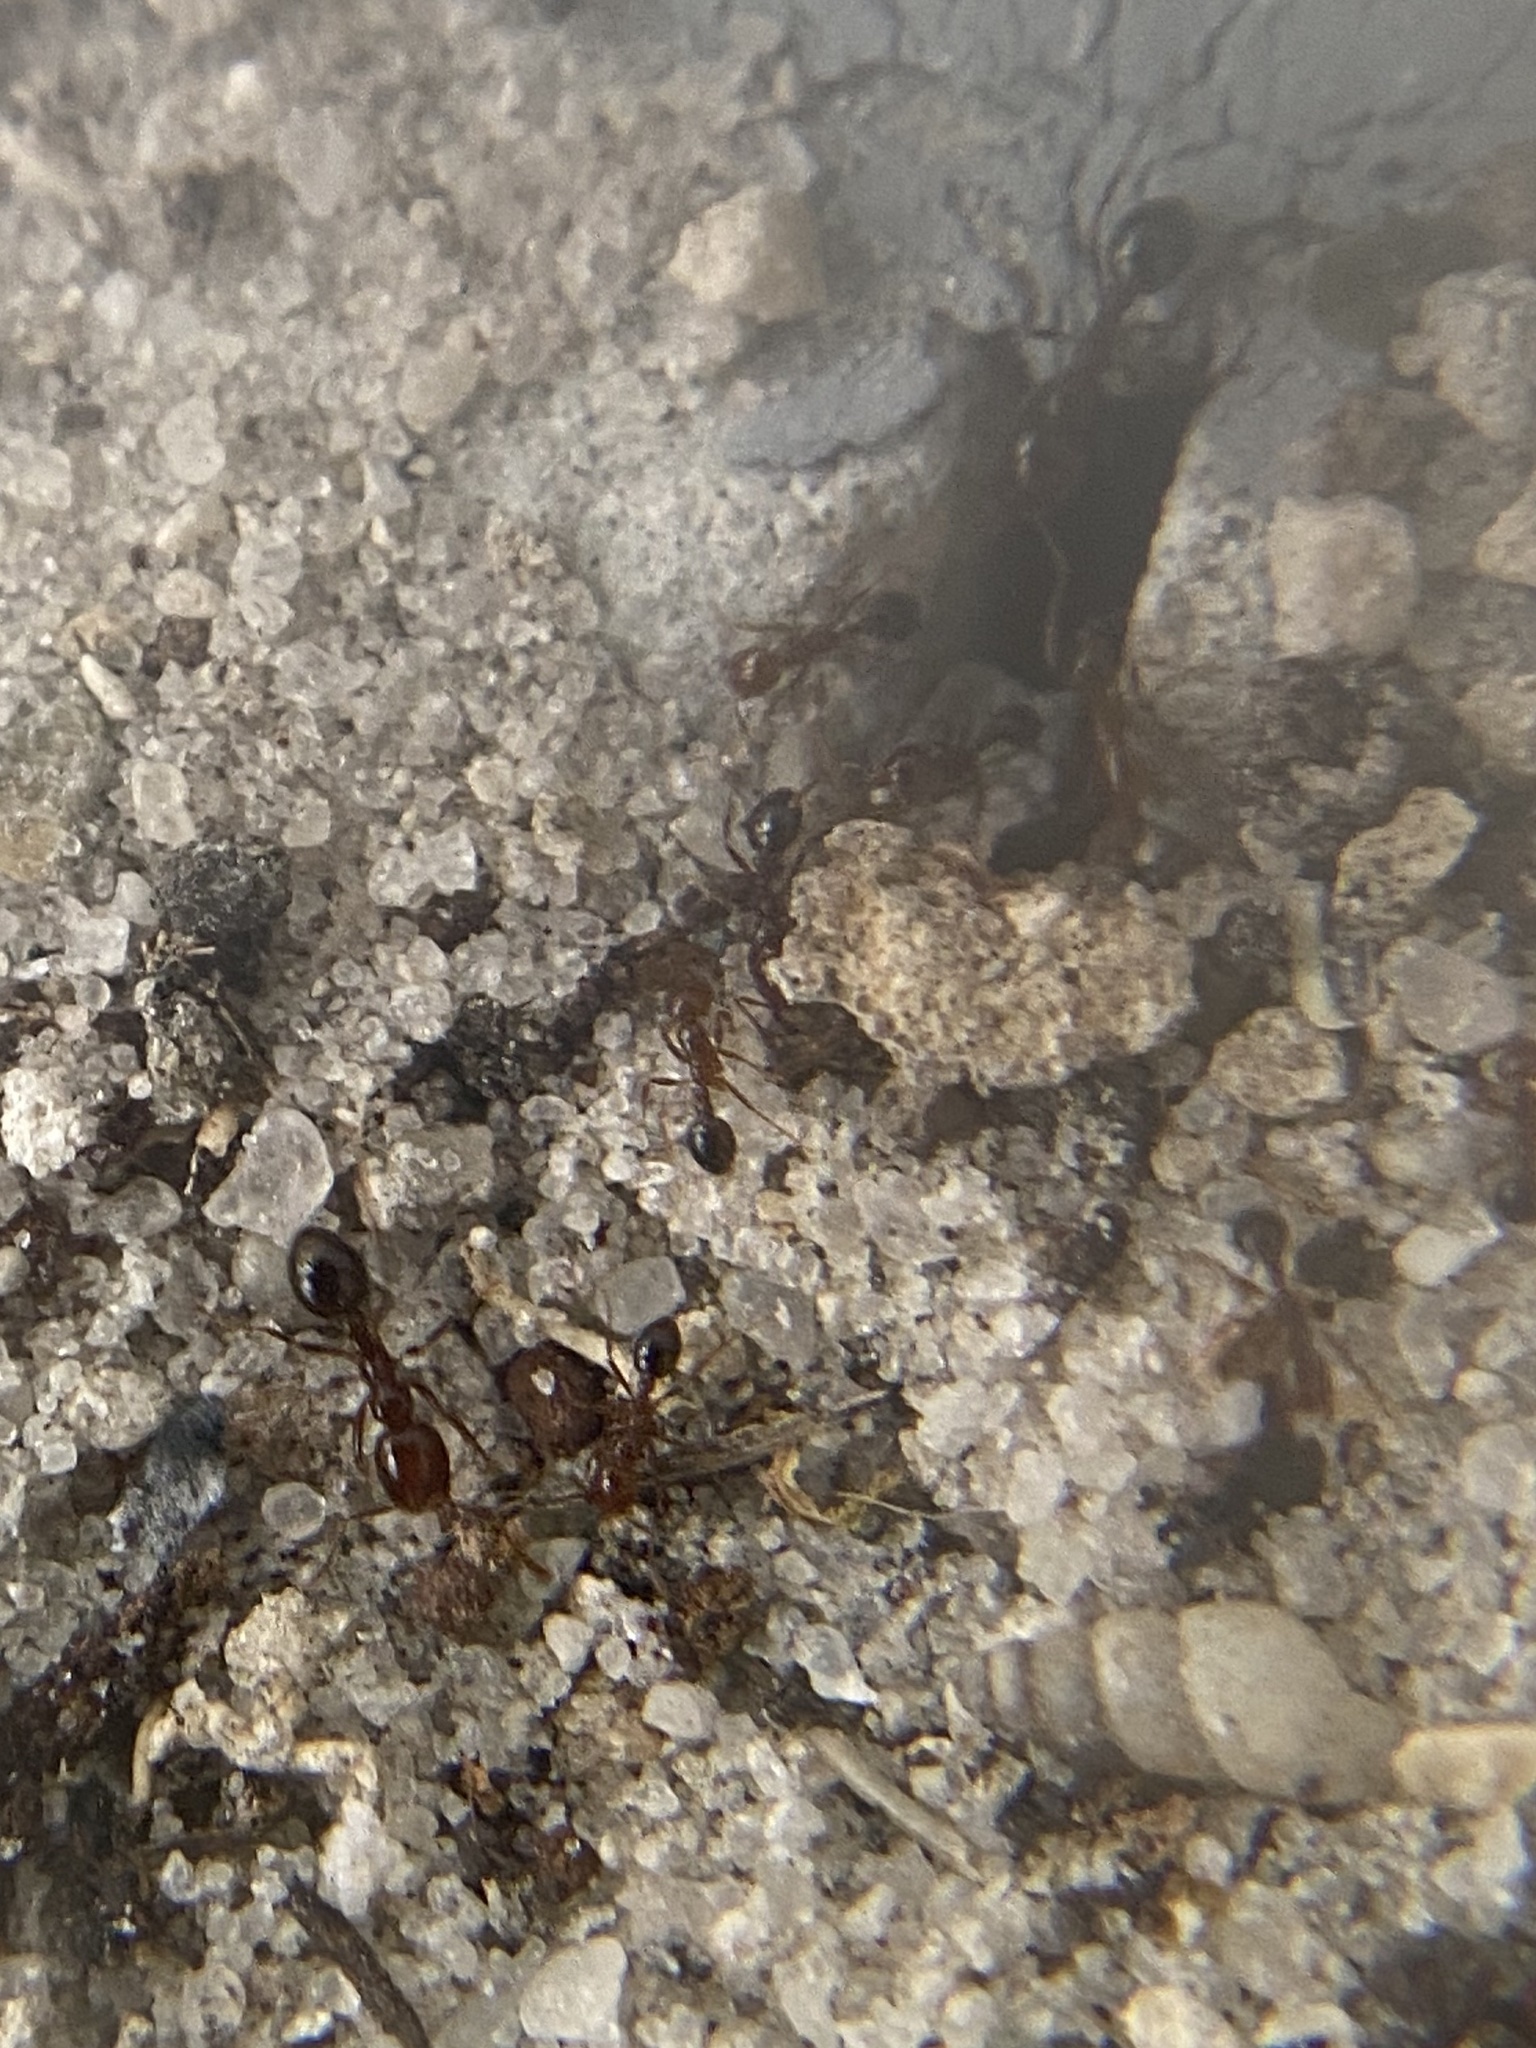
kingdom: Animalia
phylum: Arthropoda
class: Insecta
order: Hymenoptera
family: Formicidae
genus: Solenopsis
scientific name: Solenopsis invicta
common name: Red imported fire ant
